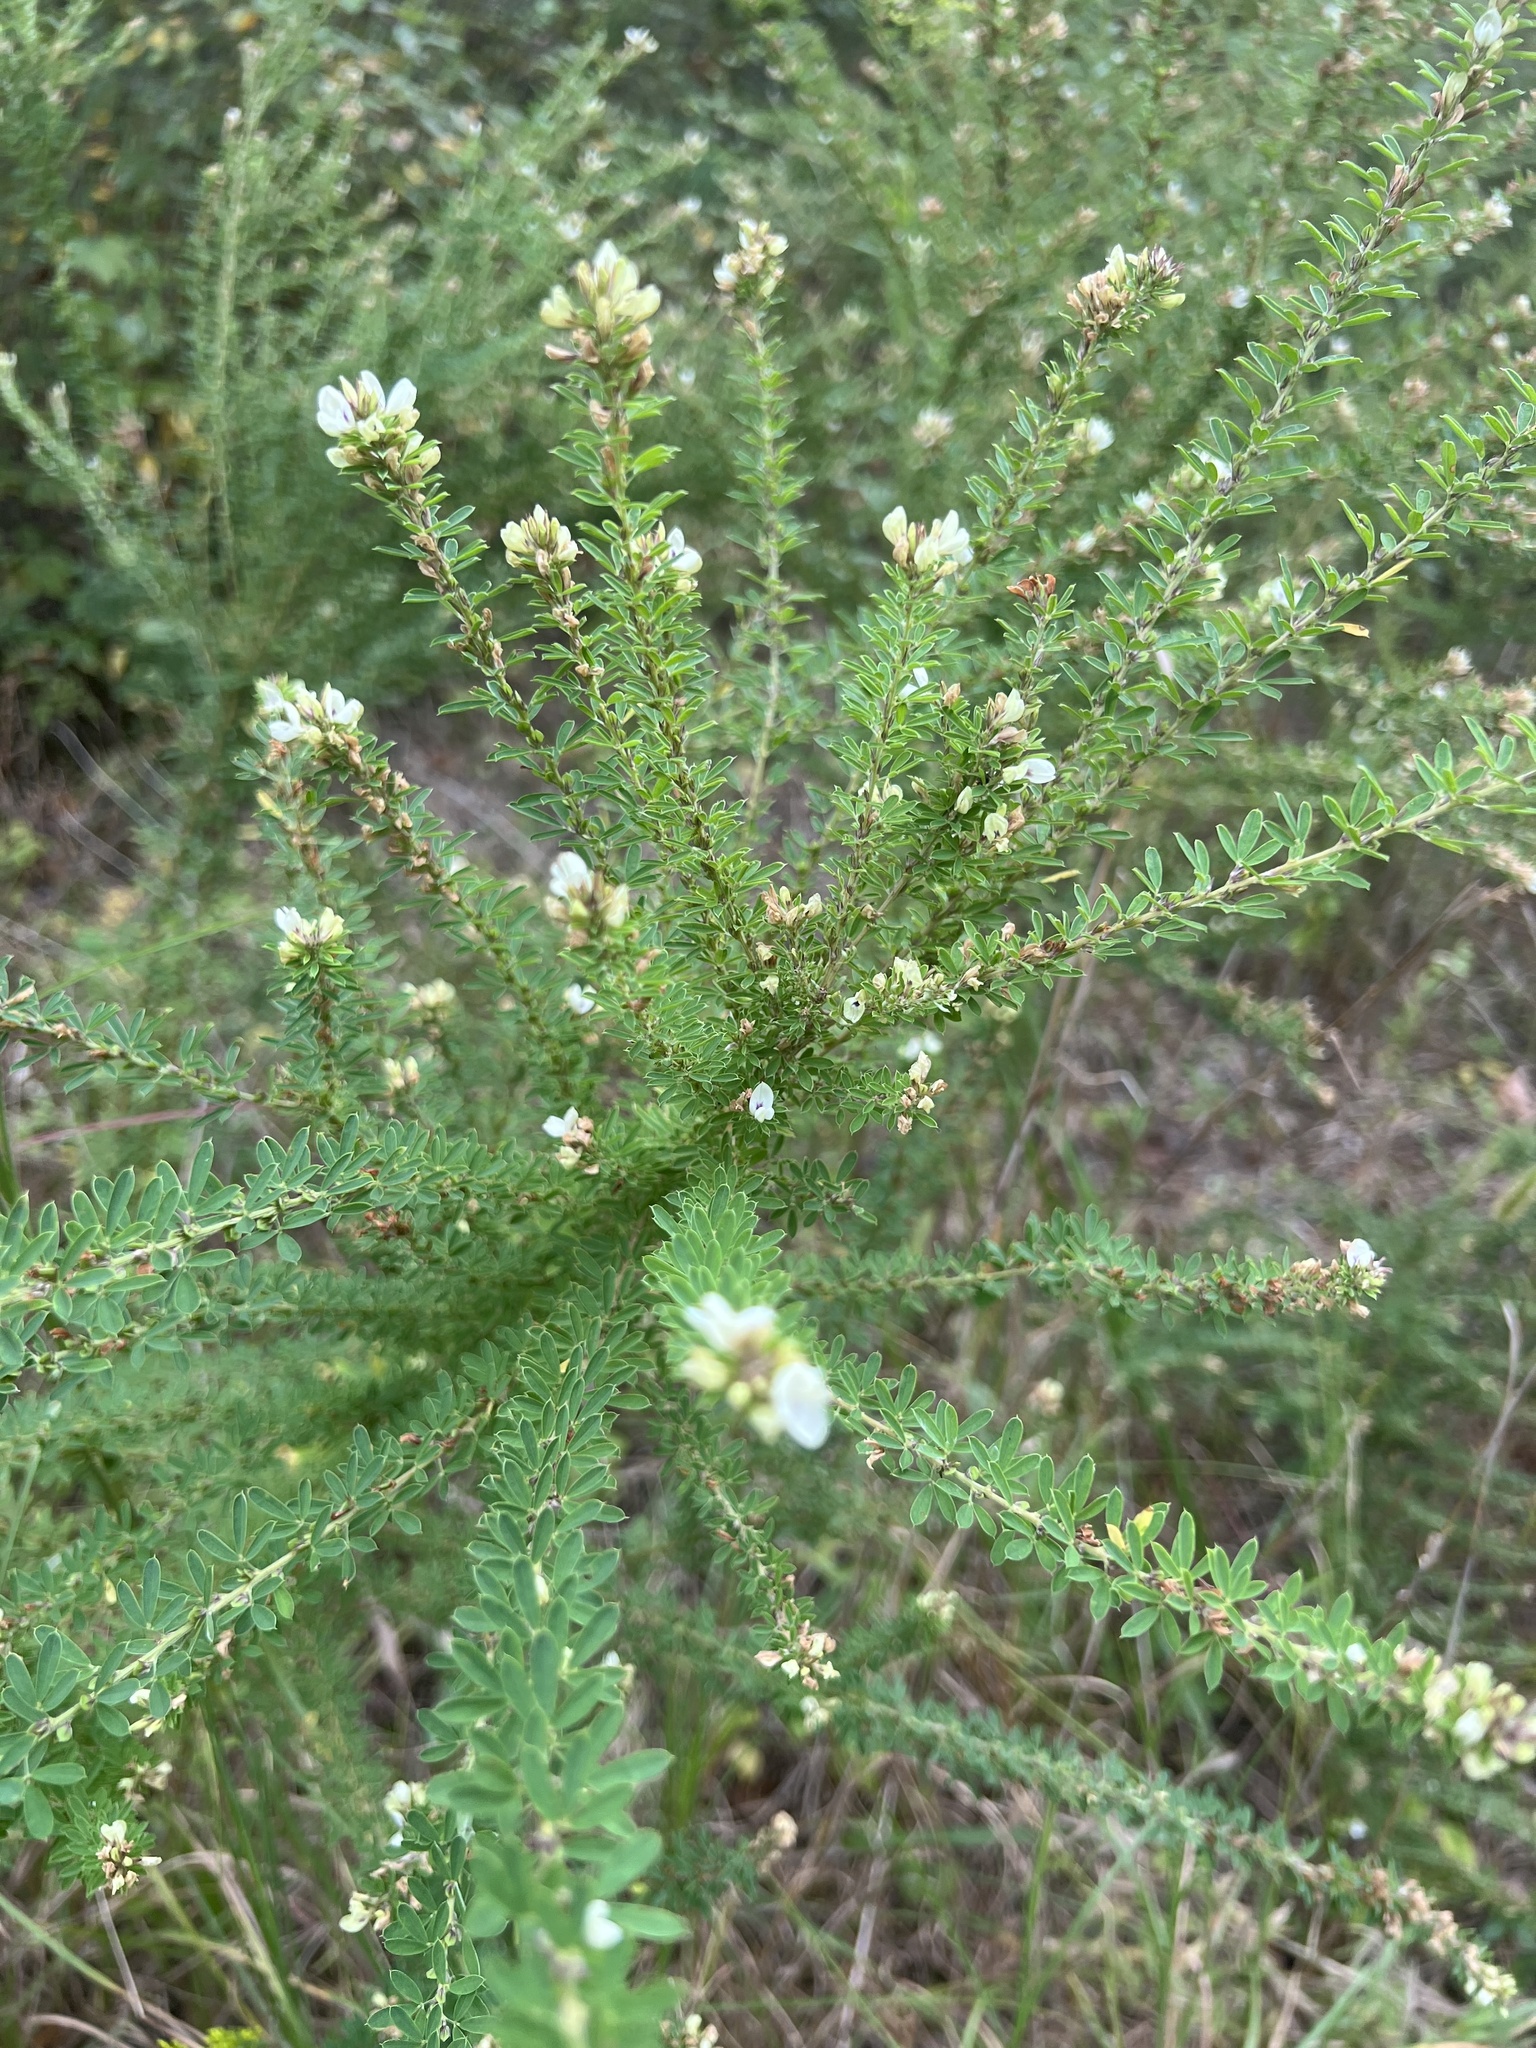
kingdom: Plantae
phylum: Tracheophyta
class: Magnoliopsida
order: Fabales
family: Fabaceae
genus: Lespedeza
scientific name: Lespedeza cuneata
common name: Chinese bush-clover
